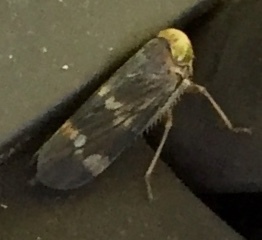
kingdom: Animalia
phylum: Arthropoda
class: Insecta
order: Hemiptera
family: Cicadellidae
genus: Jikradia
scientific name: Jikradia olitoria
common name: Coppery leafhopper
